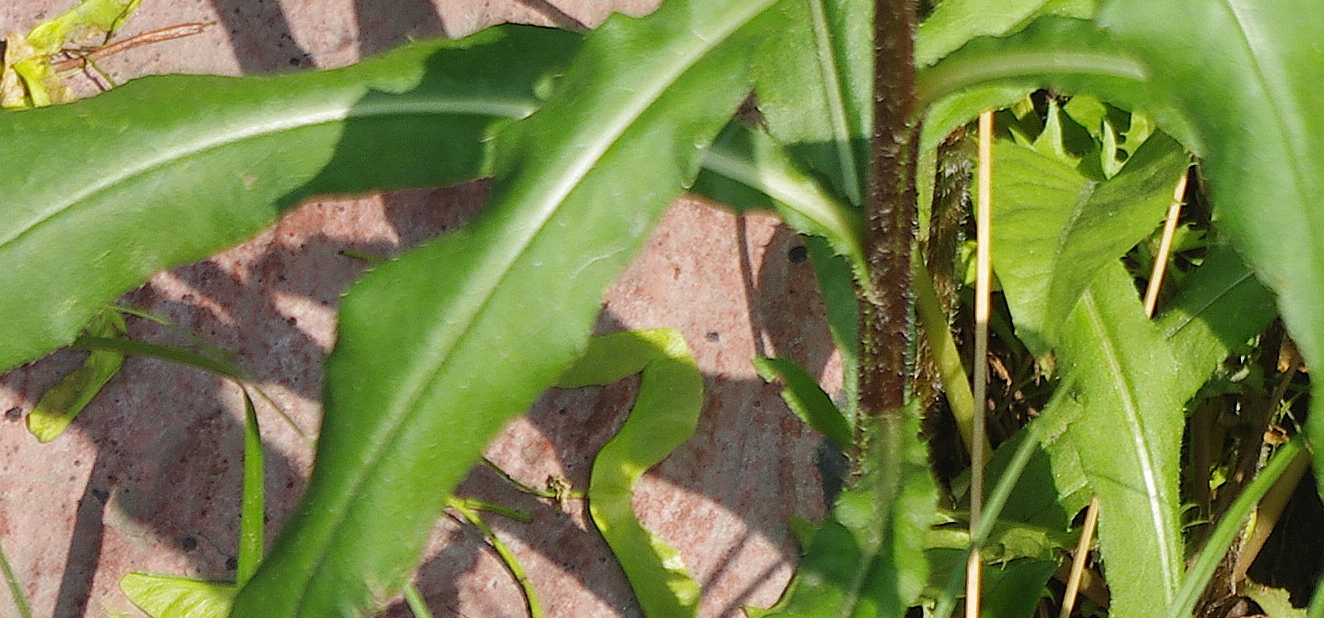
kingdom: Plantae
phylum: Tracheophyta
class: Magnoliopsida
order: Asterales
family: Asteraceae
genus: Cirsium
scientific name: Cirsium arvense
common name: Creeping thistle
